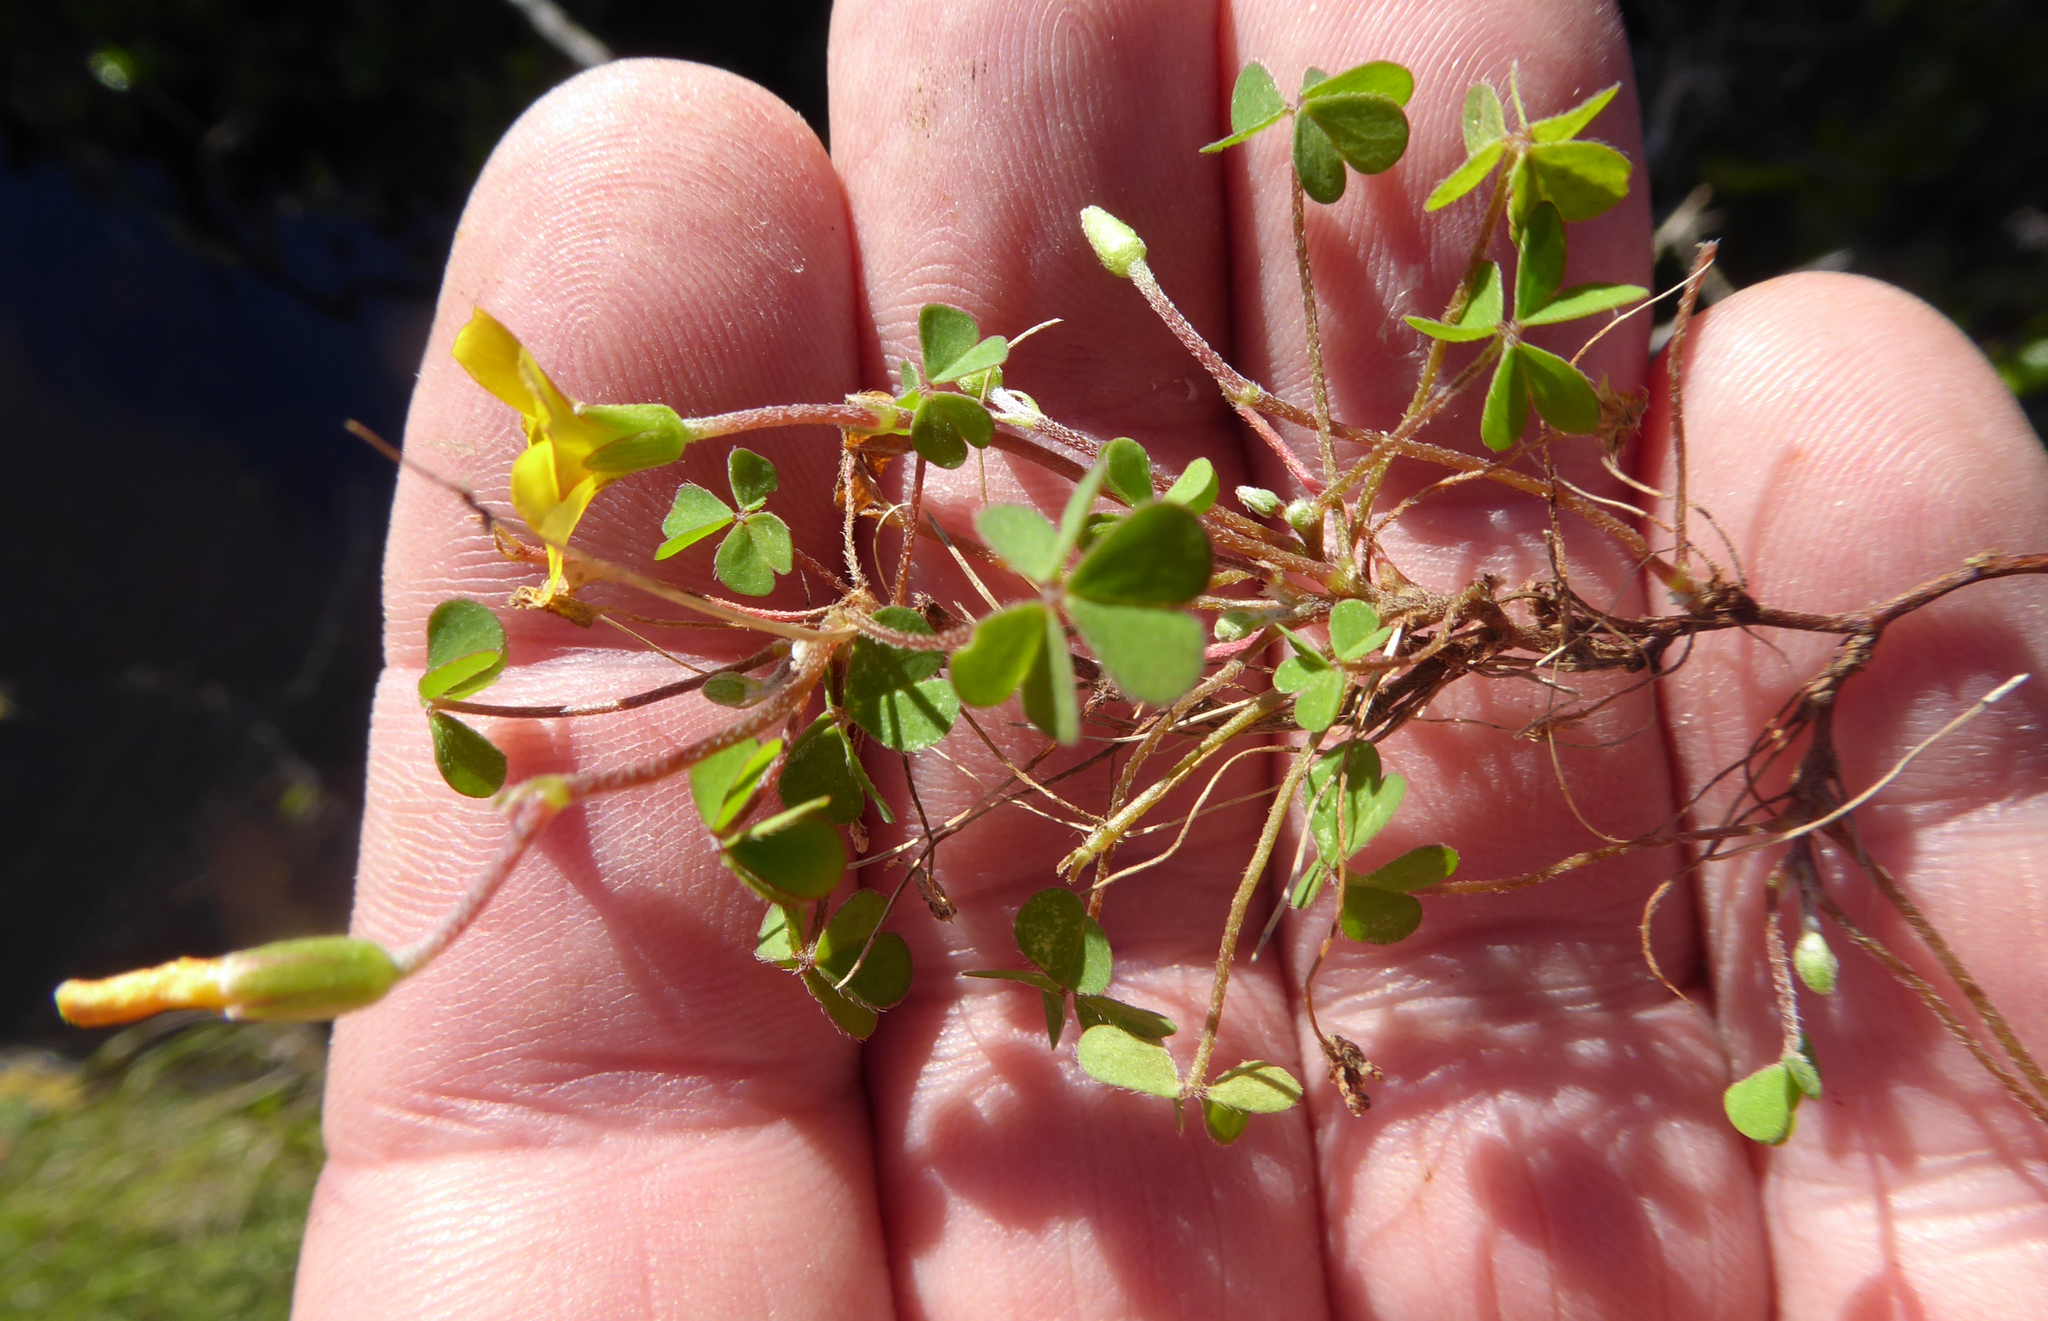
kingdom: Plantae
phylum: Tracheophyta
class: Magnoliopsida
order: Oxalidales
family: Oxalidaceae
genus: Oxalis
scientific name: Oxalis exilis
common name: Least yellow-sorrel
